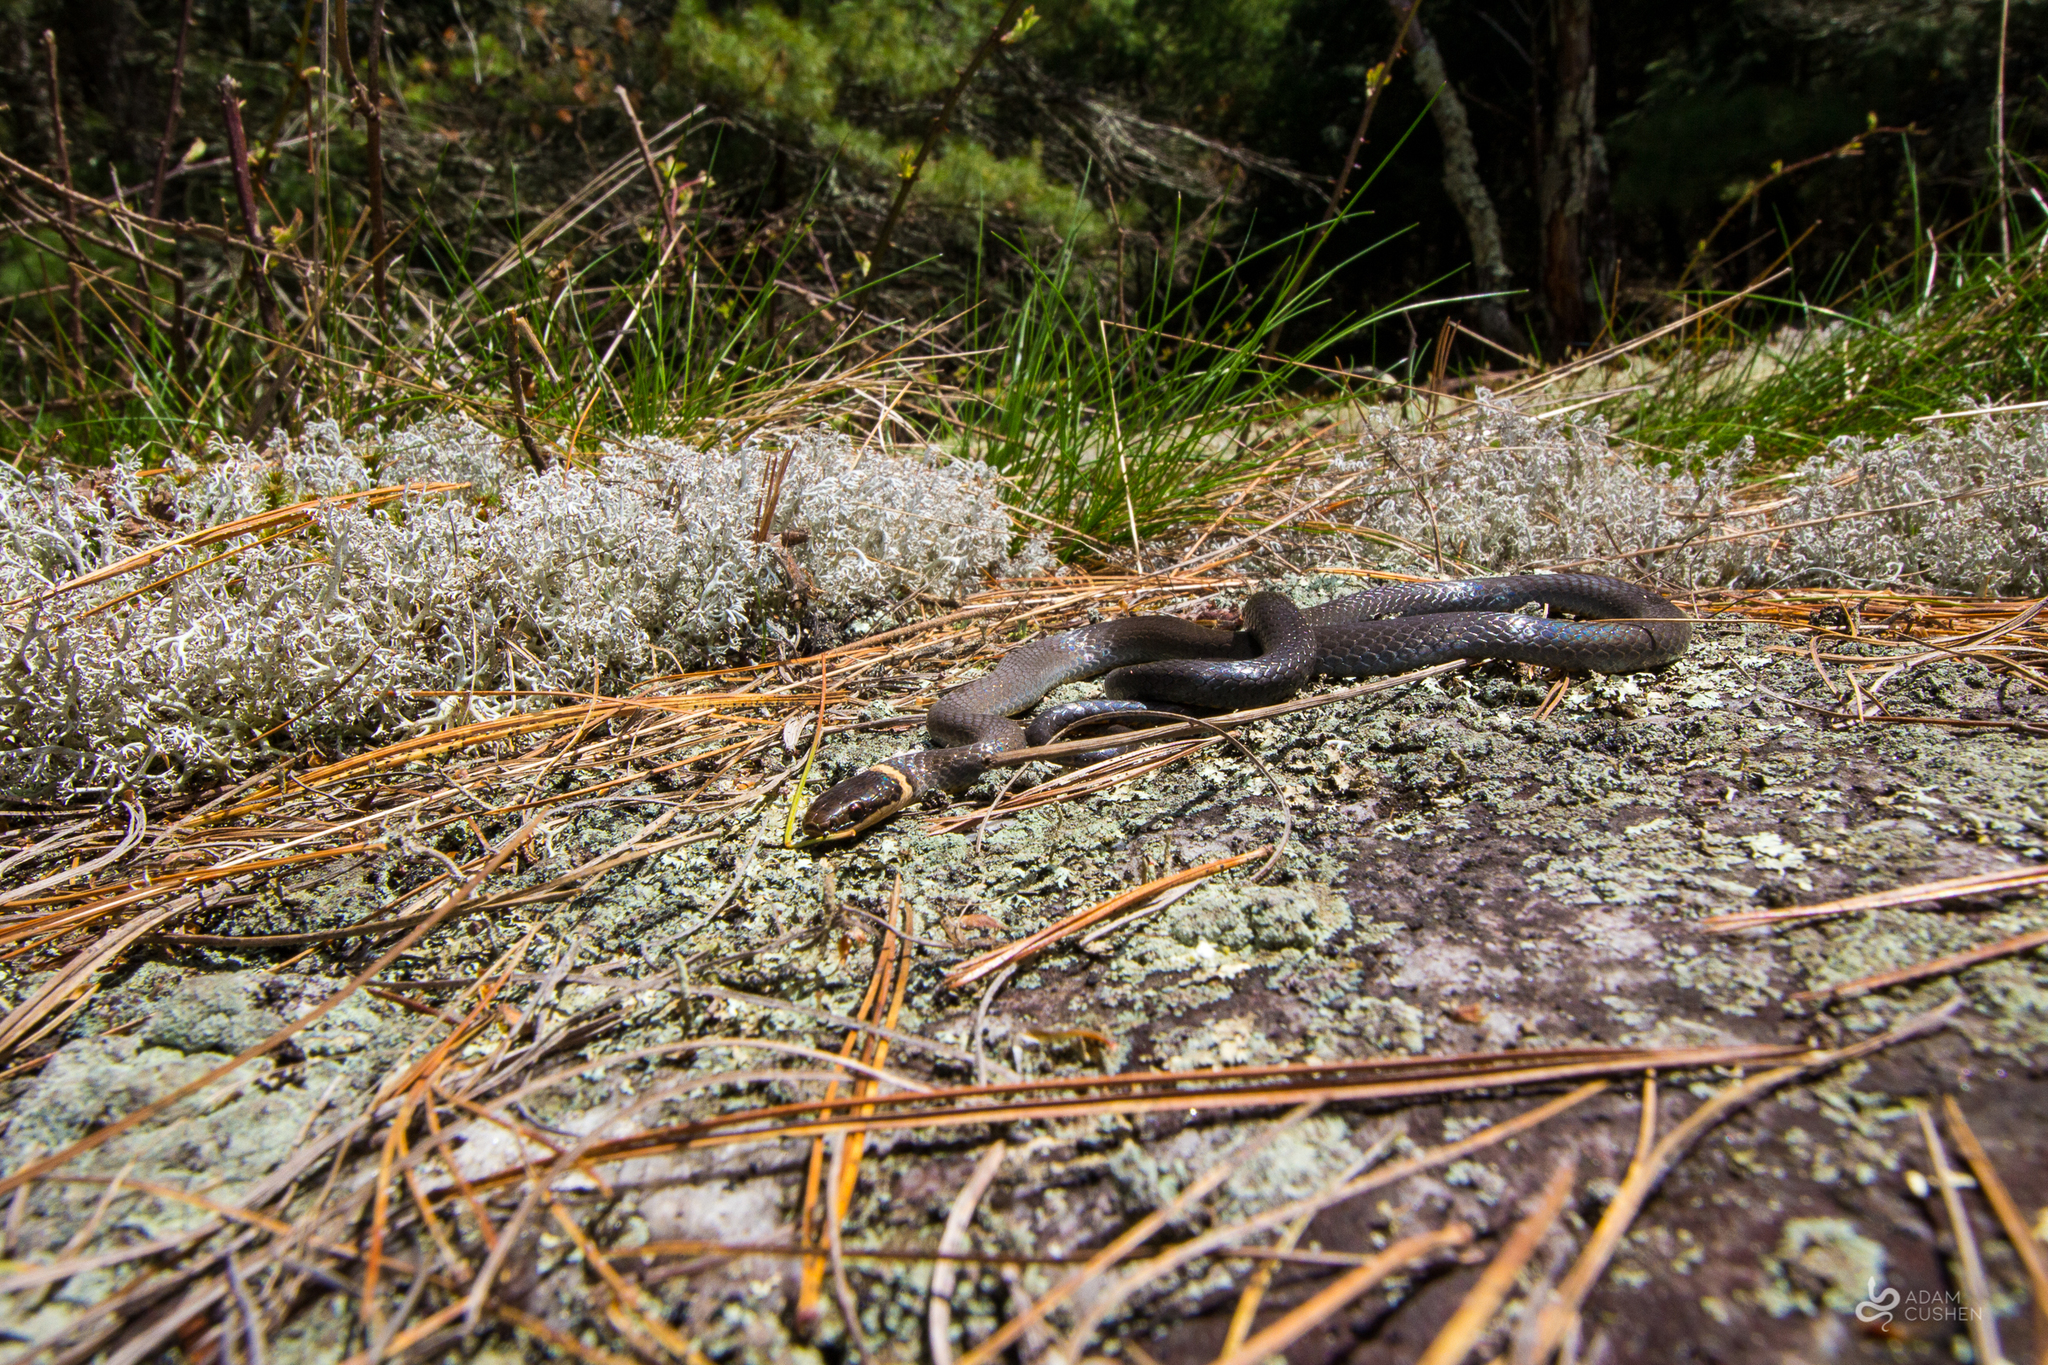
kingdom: Animalia
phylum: Chordata
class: Squamata
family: Colubridae
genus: Diadophis
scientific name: Diadophis punctatus
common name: Ringneck snake
